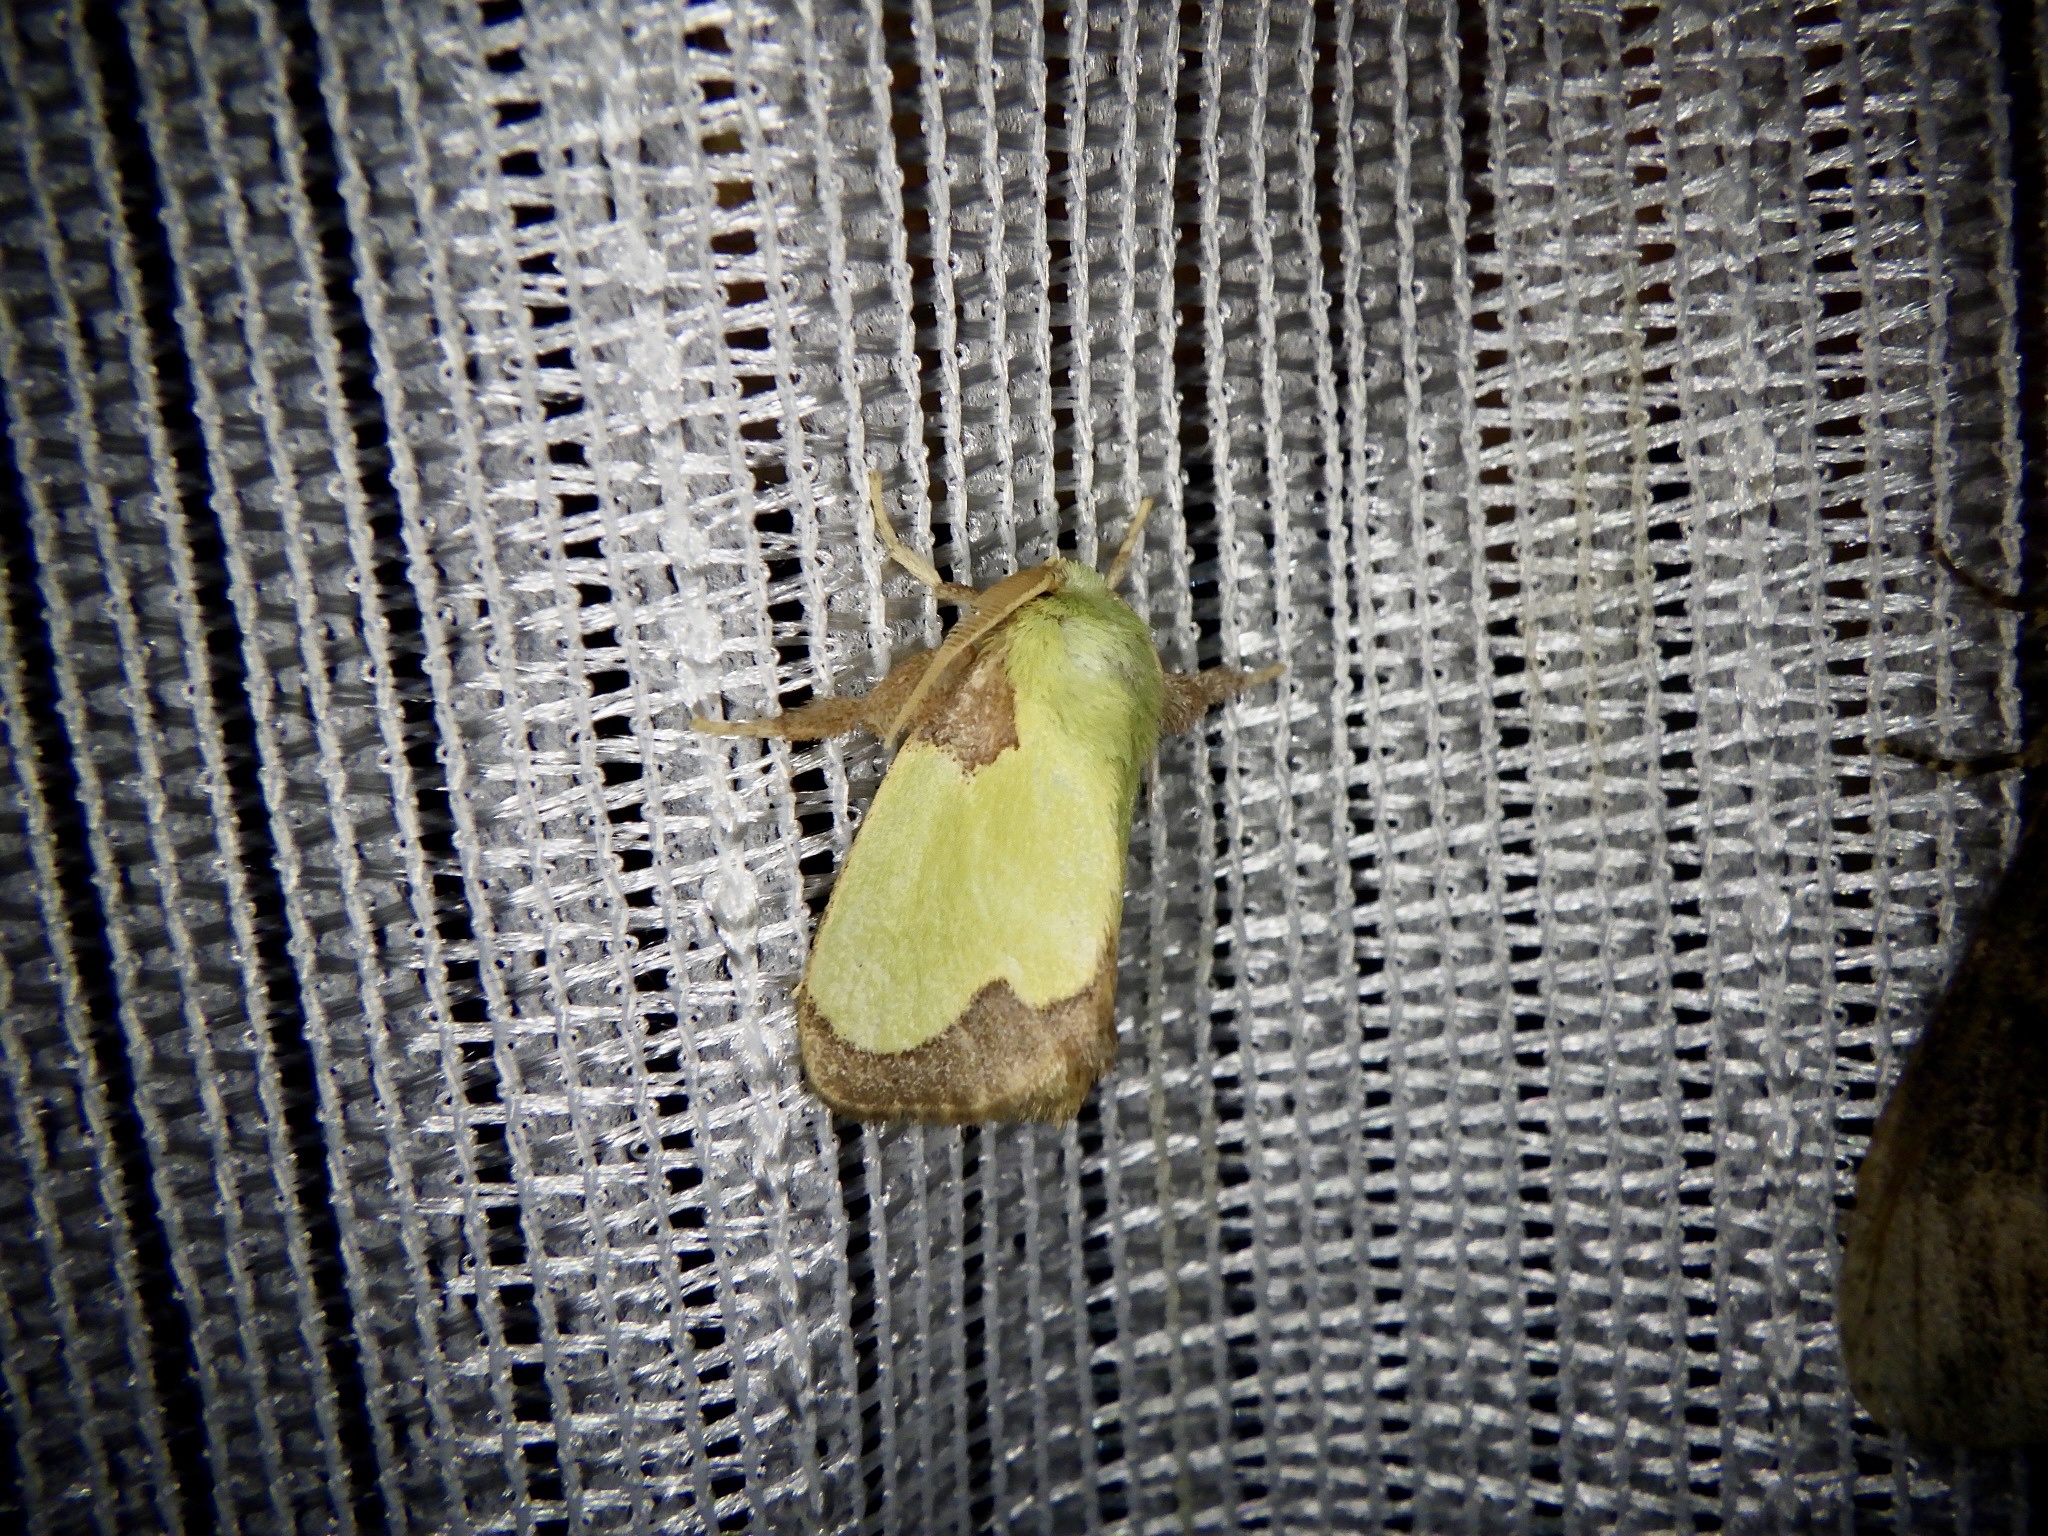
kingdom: Animalia
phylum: Arthropoda
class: Insecta
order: Lepidoptera
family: Limacodidae
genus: Parasa
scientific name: Parasa hilarula
